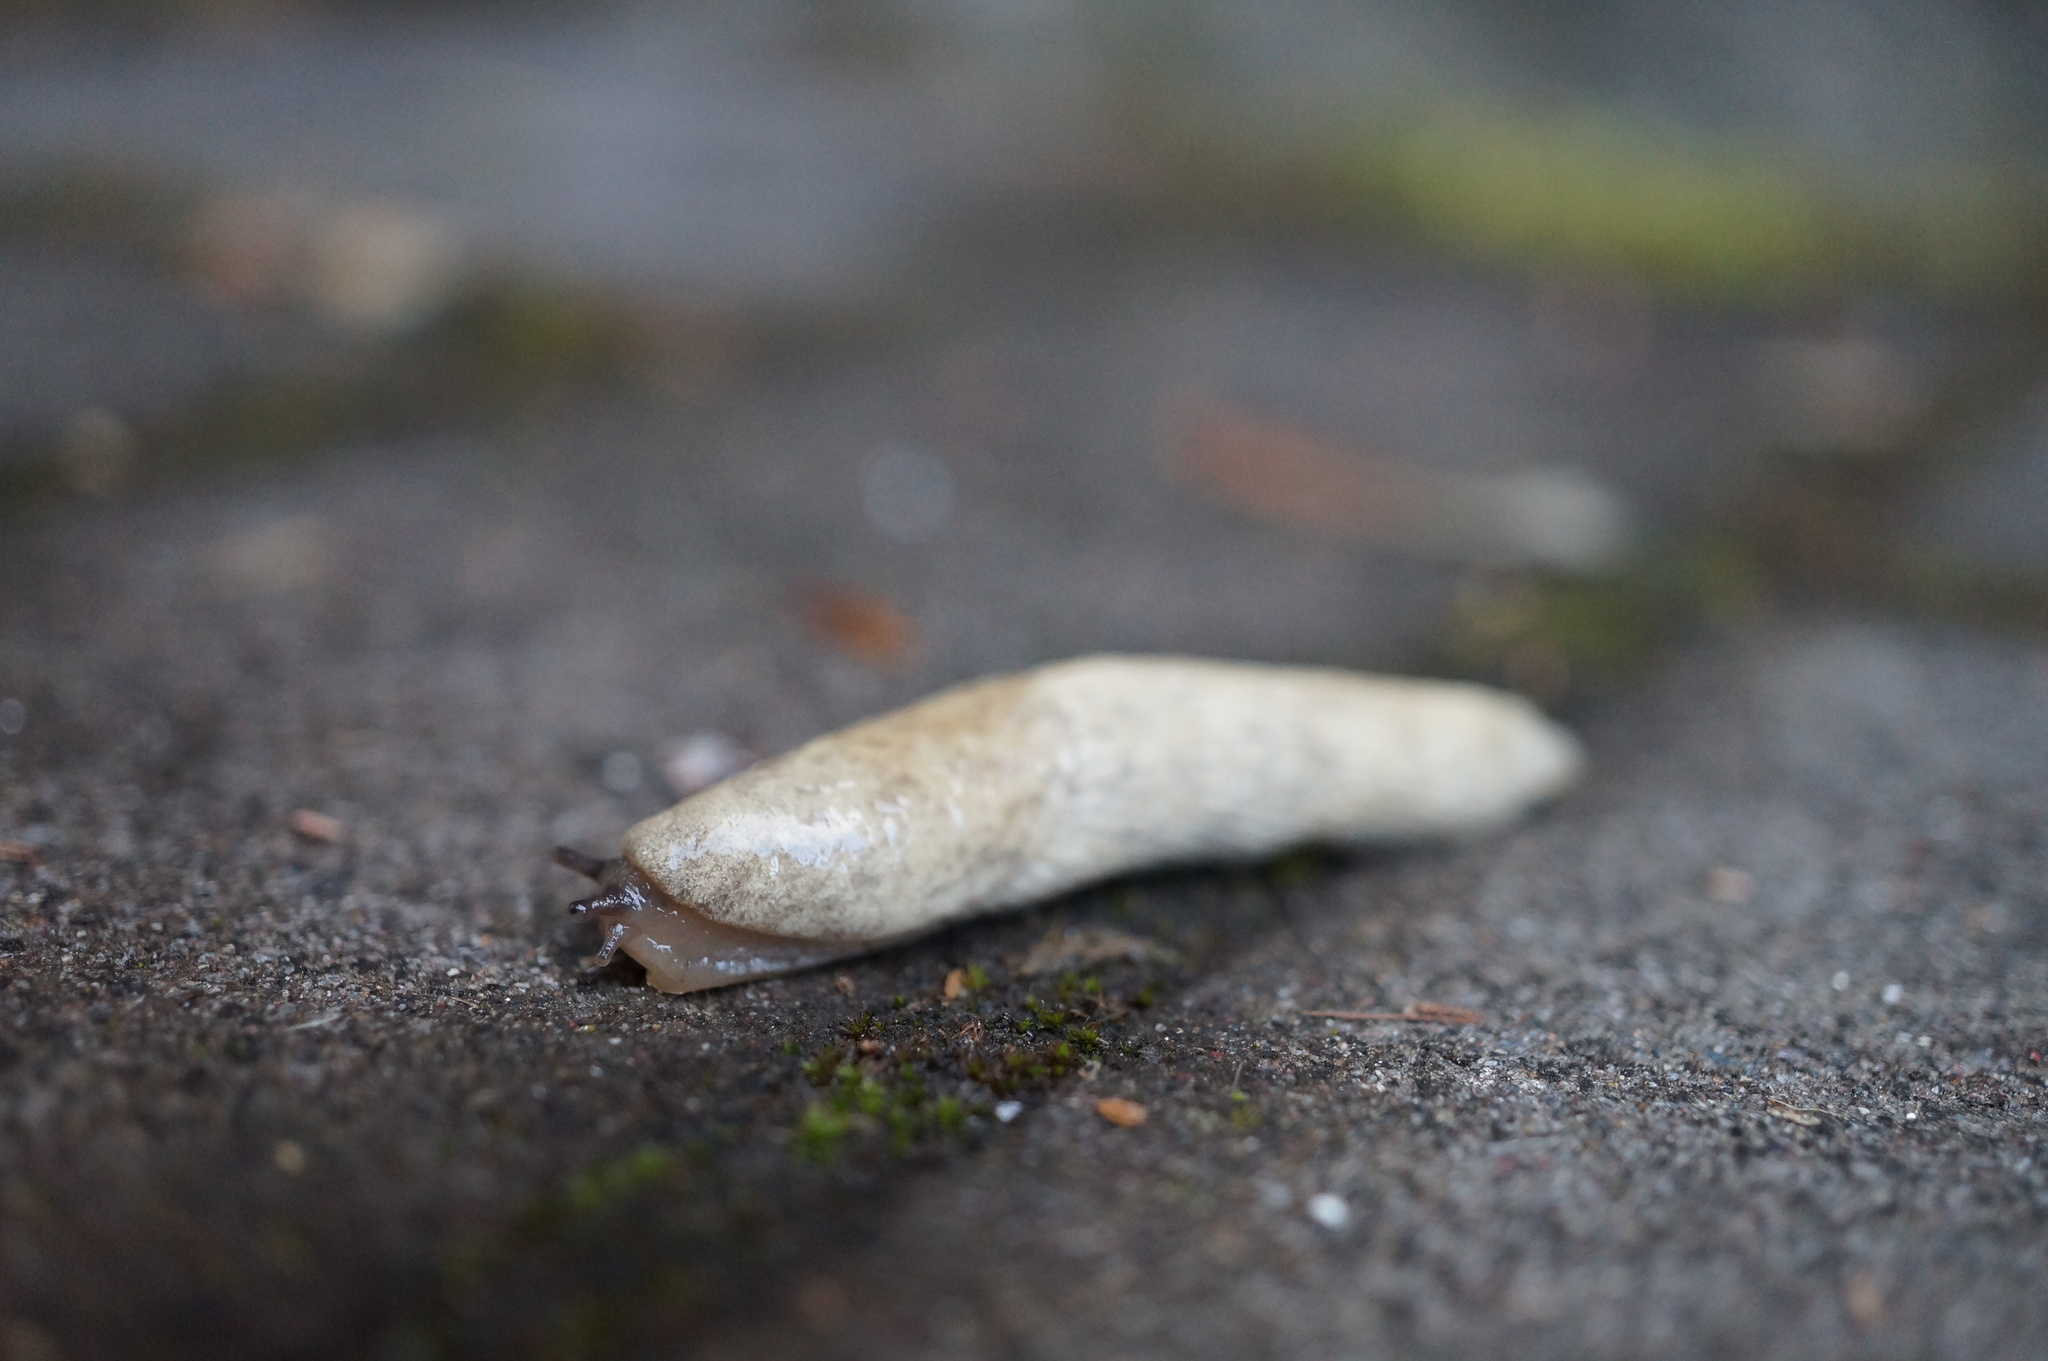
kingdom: Animalia
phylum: Mollusca
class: Gastropoda
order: Stylommatophora
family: Agriolimacidae
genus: Deroceras
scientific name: Deroceras reticulatum
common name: Gray field slug
